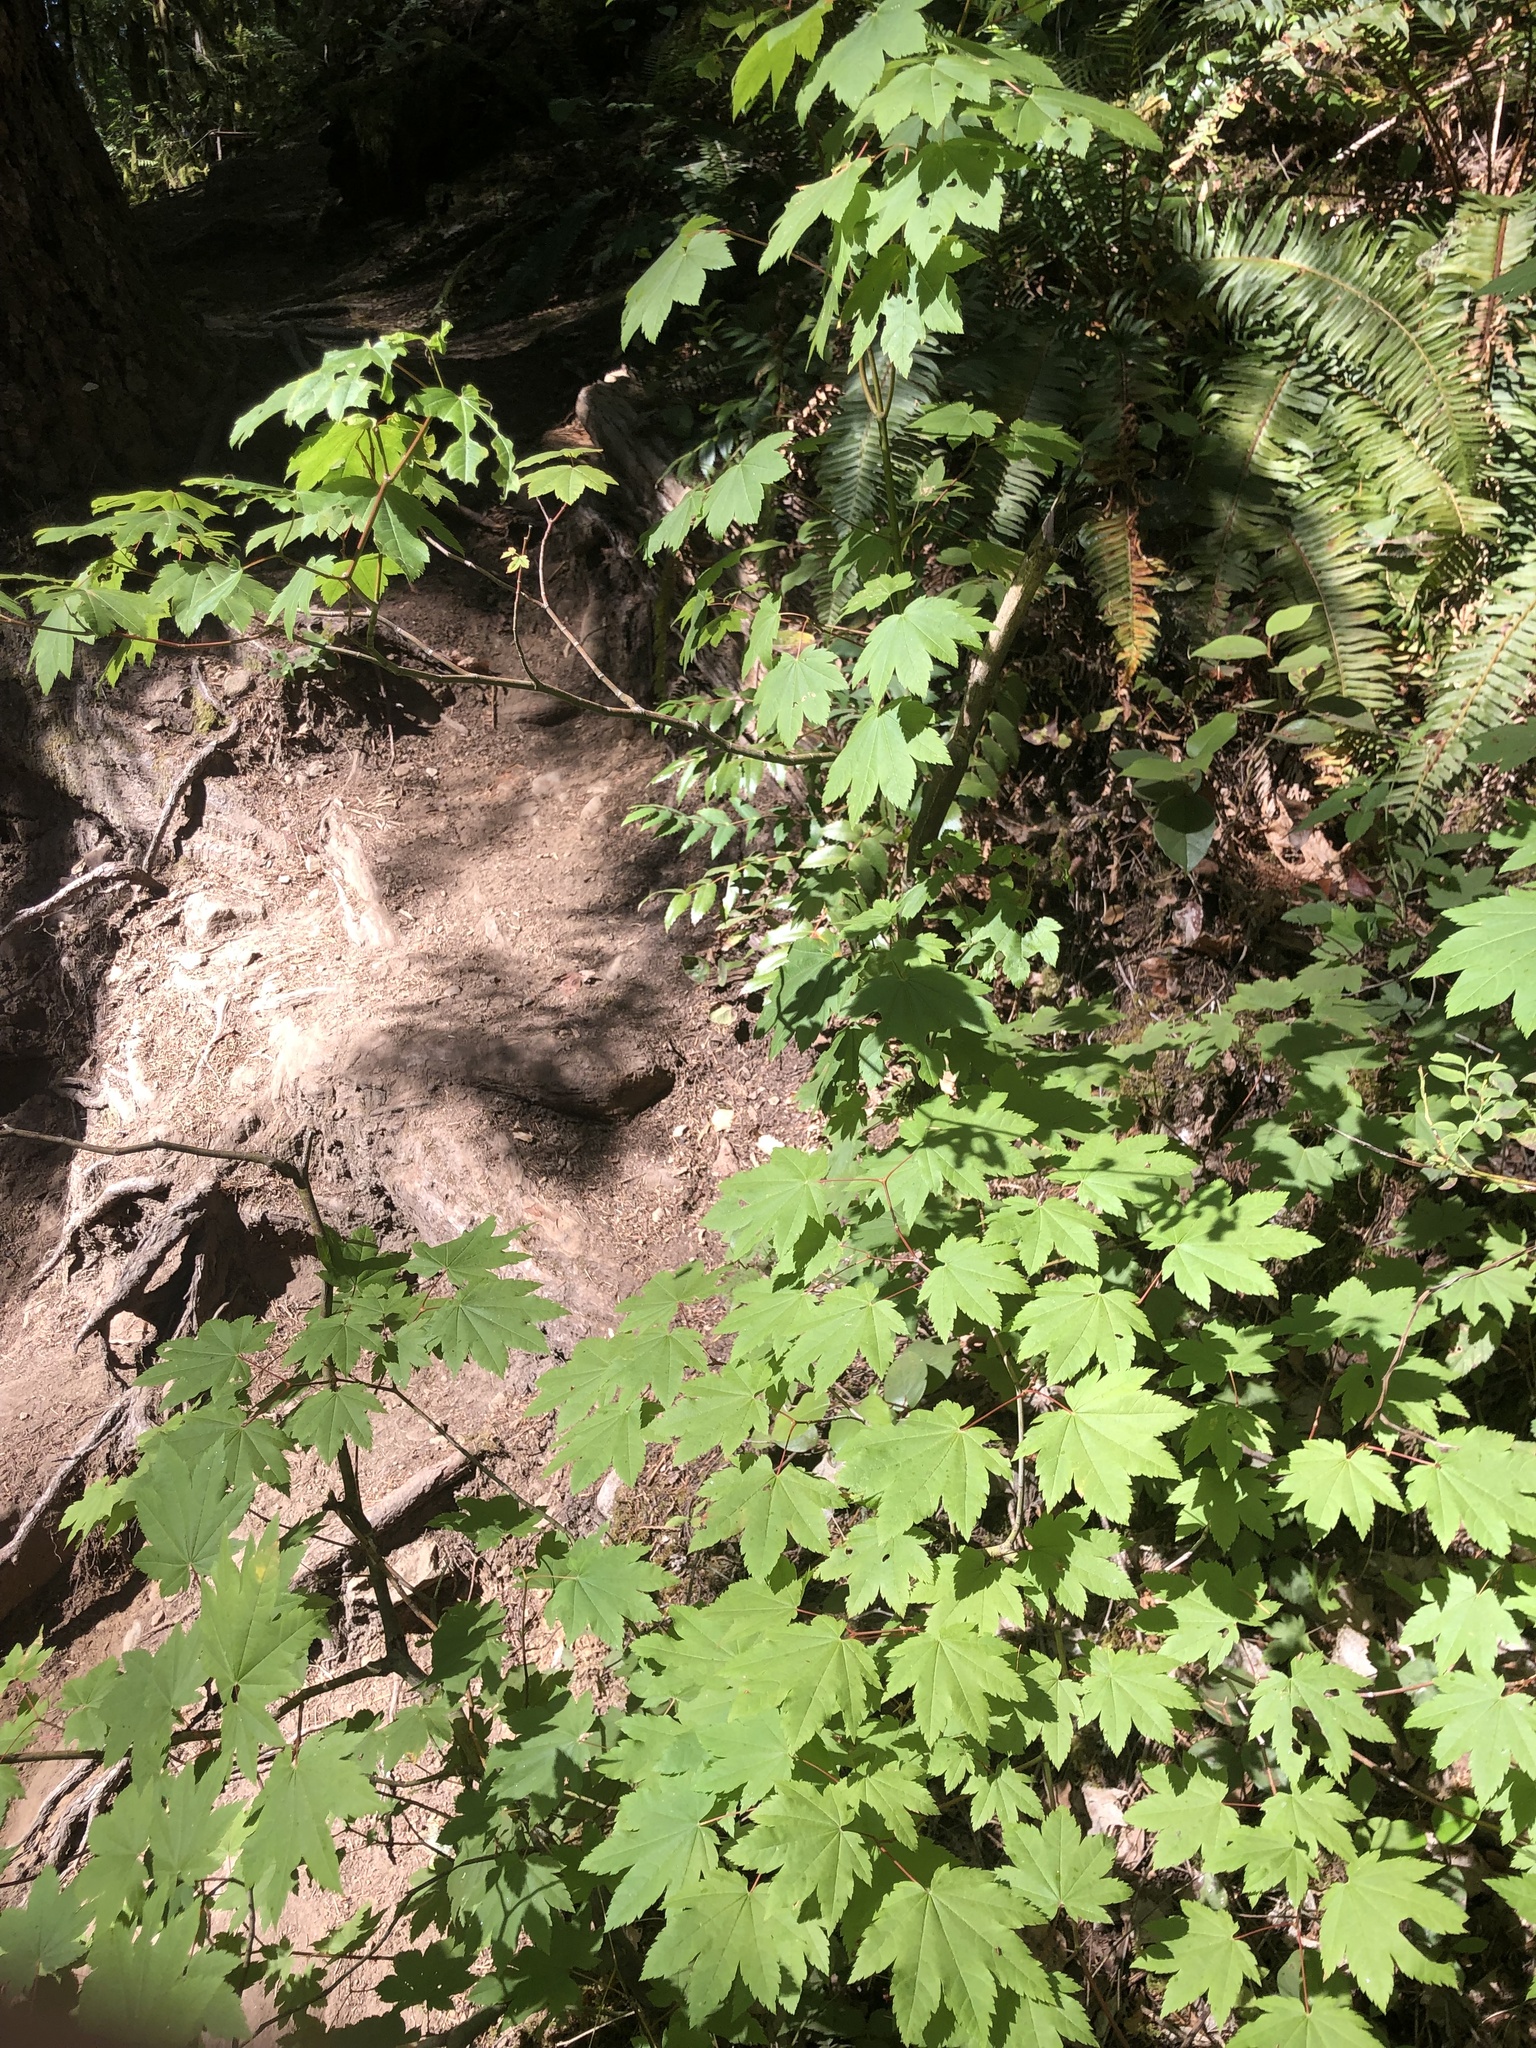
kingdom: Plantae
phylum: Tracheophyta
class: Magnoliopsida
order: Sapindales
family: Sapindaceae
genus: Acer
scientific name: Acer circinatum
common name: Vine maple
